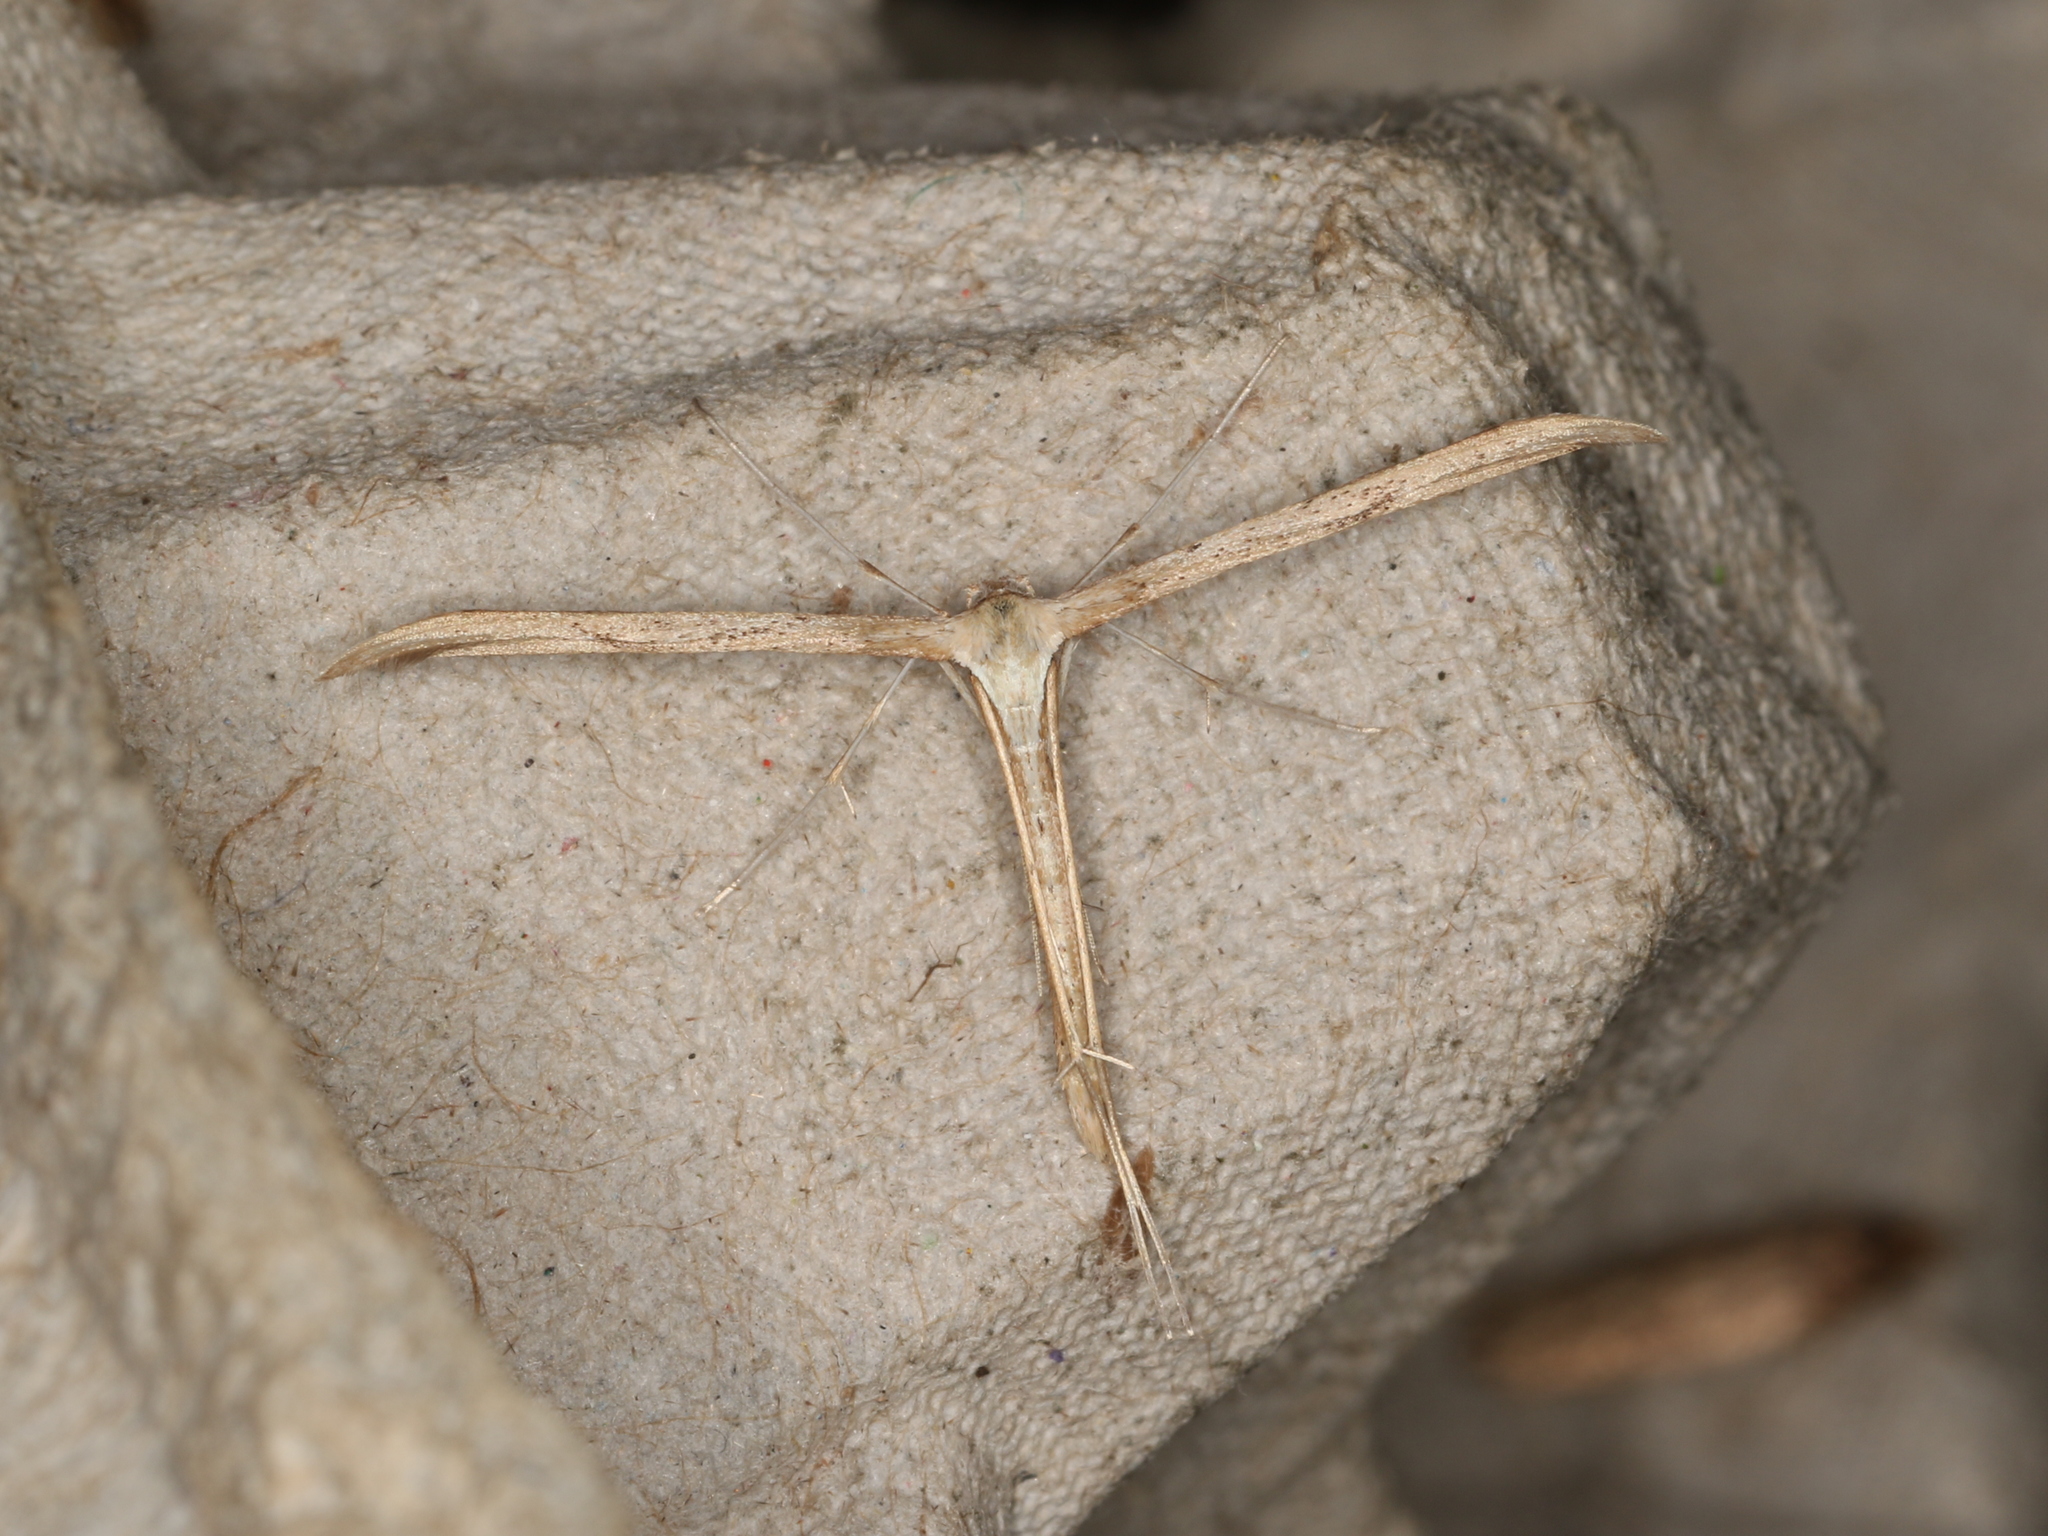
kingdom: Animalia
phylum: Arthropoda
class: Insecta
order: Lepidoptera
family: Pterophoridae
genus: Emmelina
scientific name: Emmelina monodactyla
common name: Common plume
